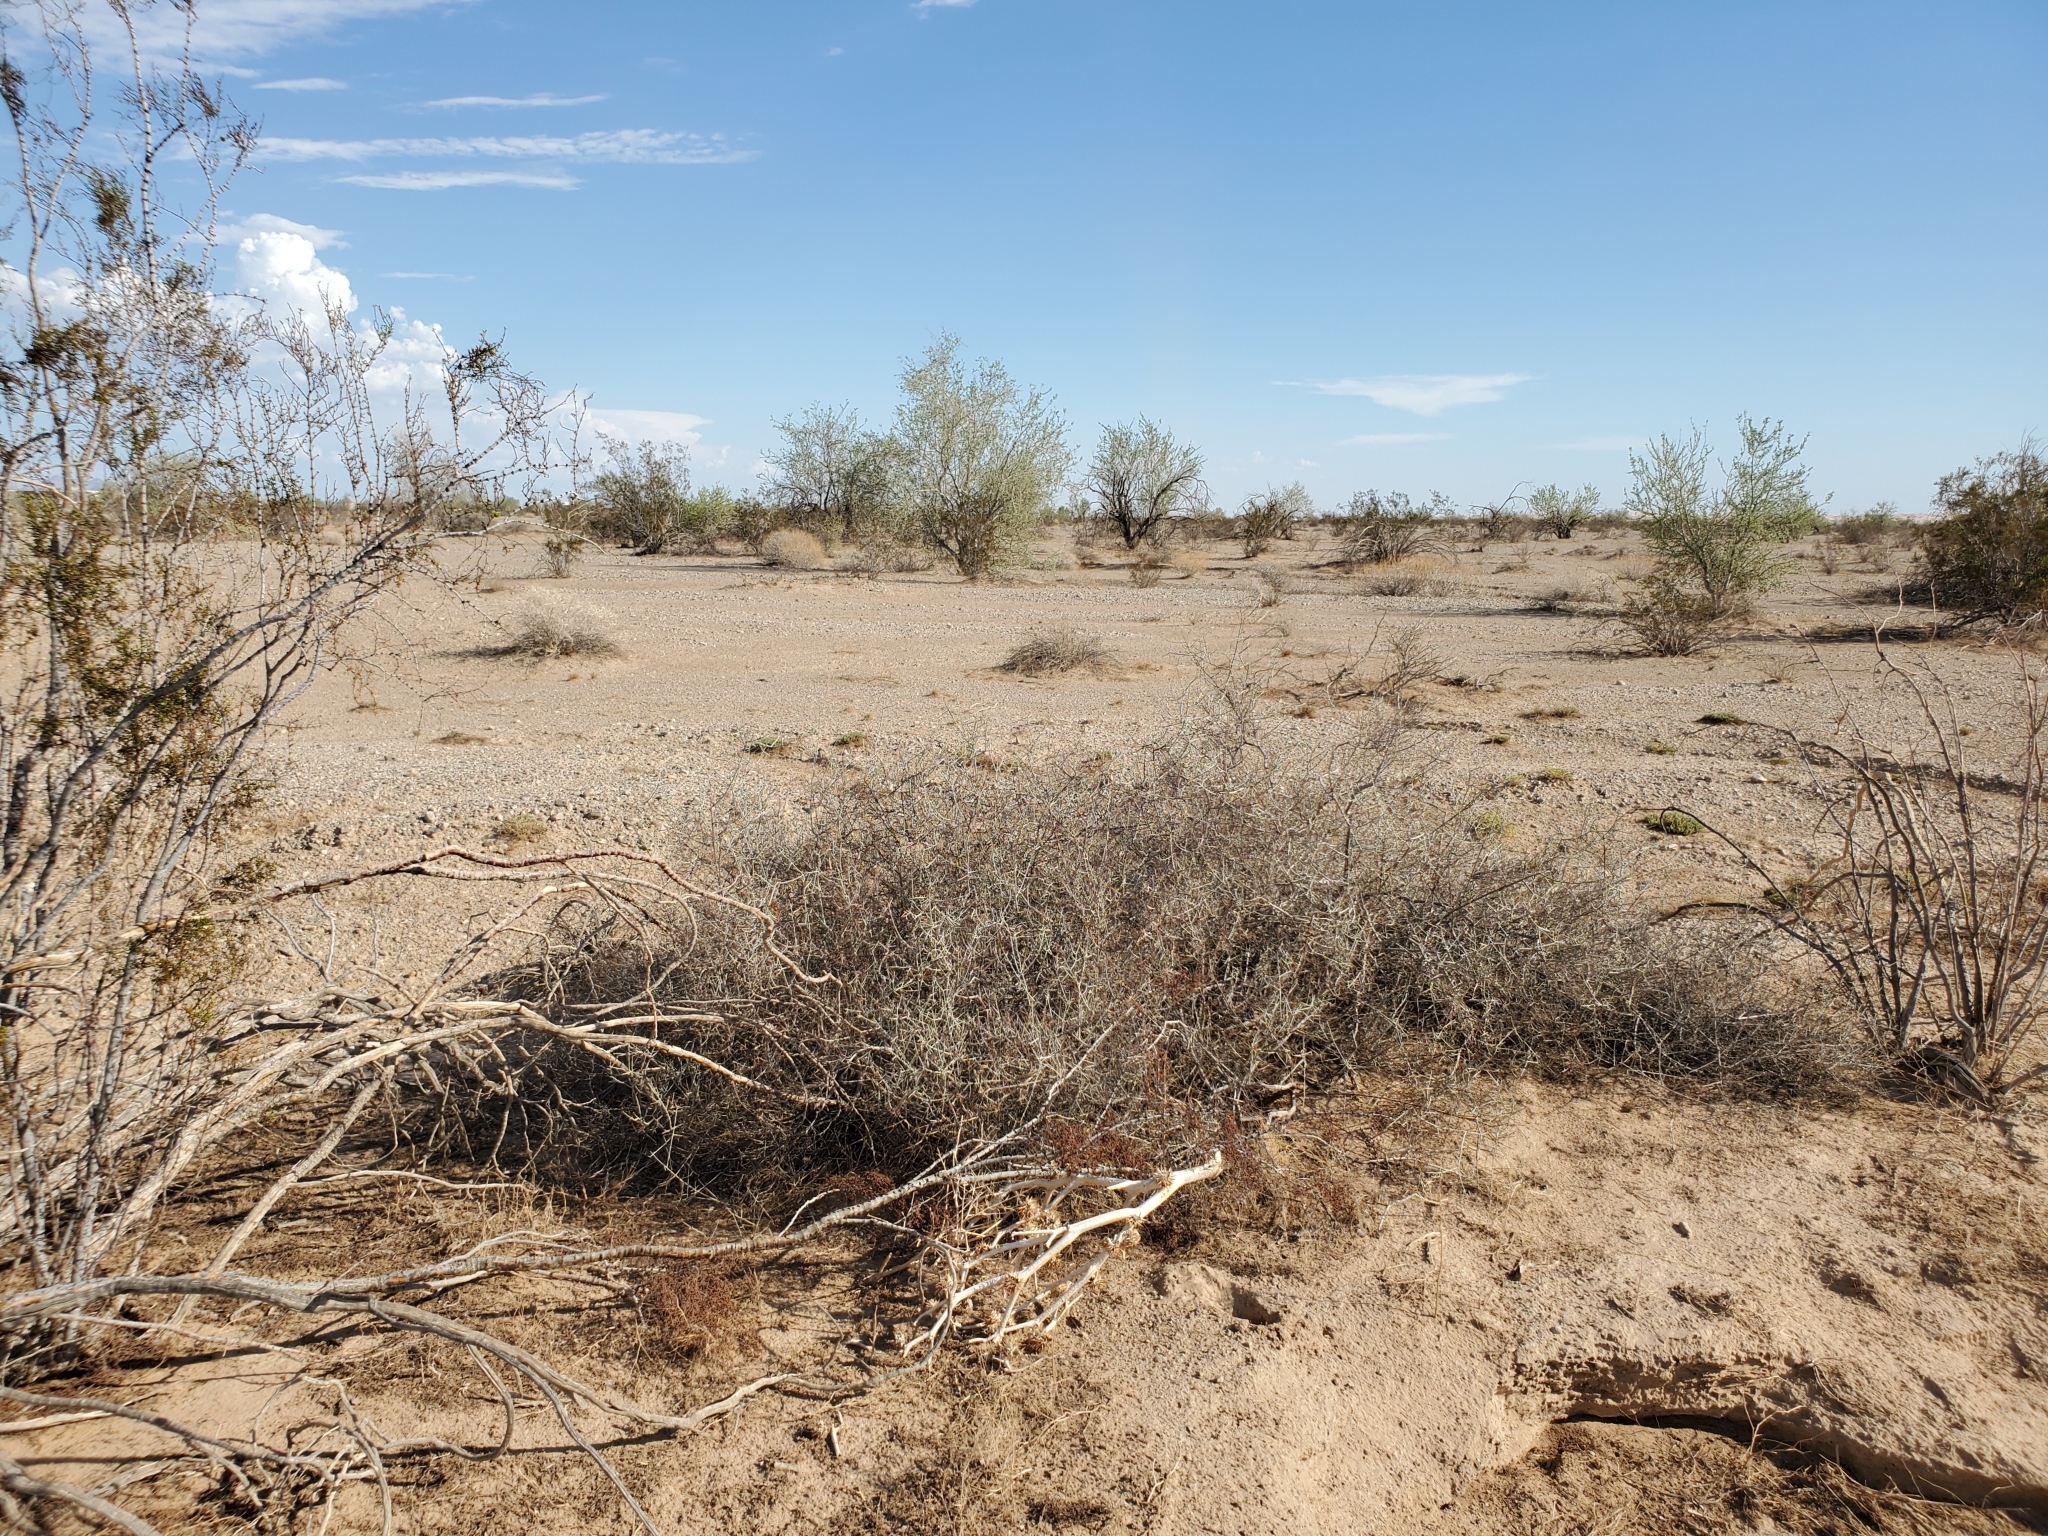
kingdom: Plantae
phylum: Tracheophyta
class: Magnoliopsida
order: Solanales
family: Solanaceae
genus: Datura
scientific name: Datura discolor
